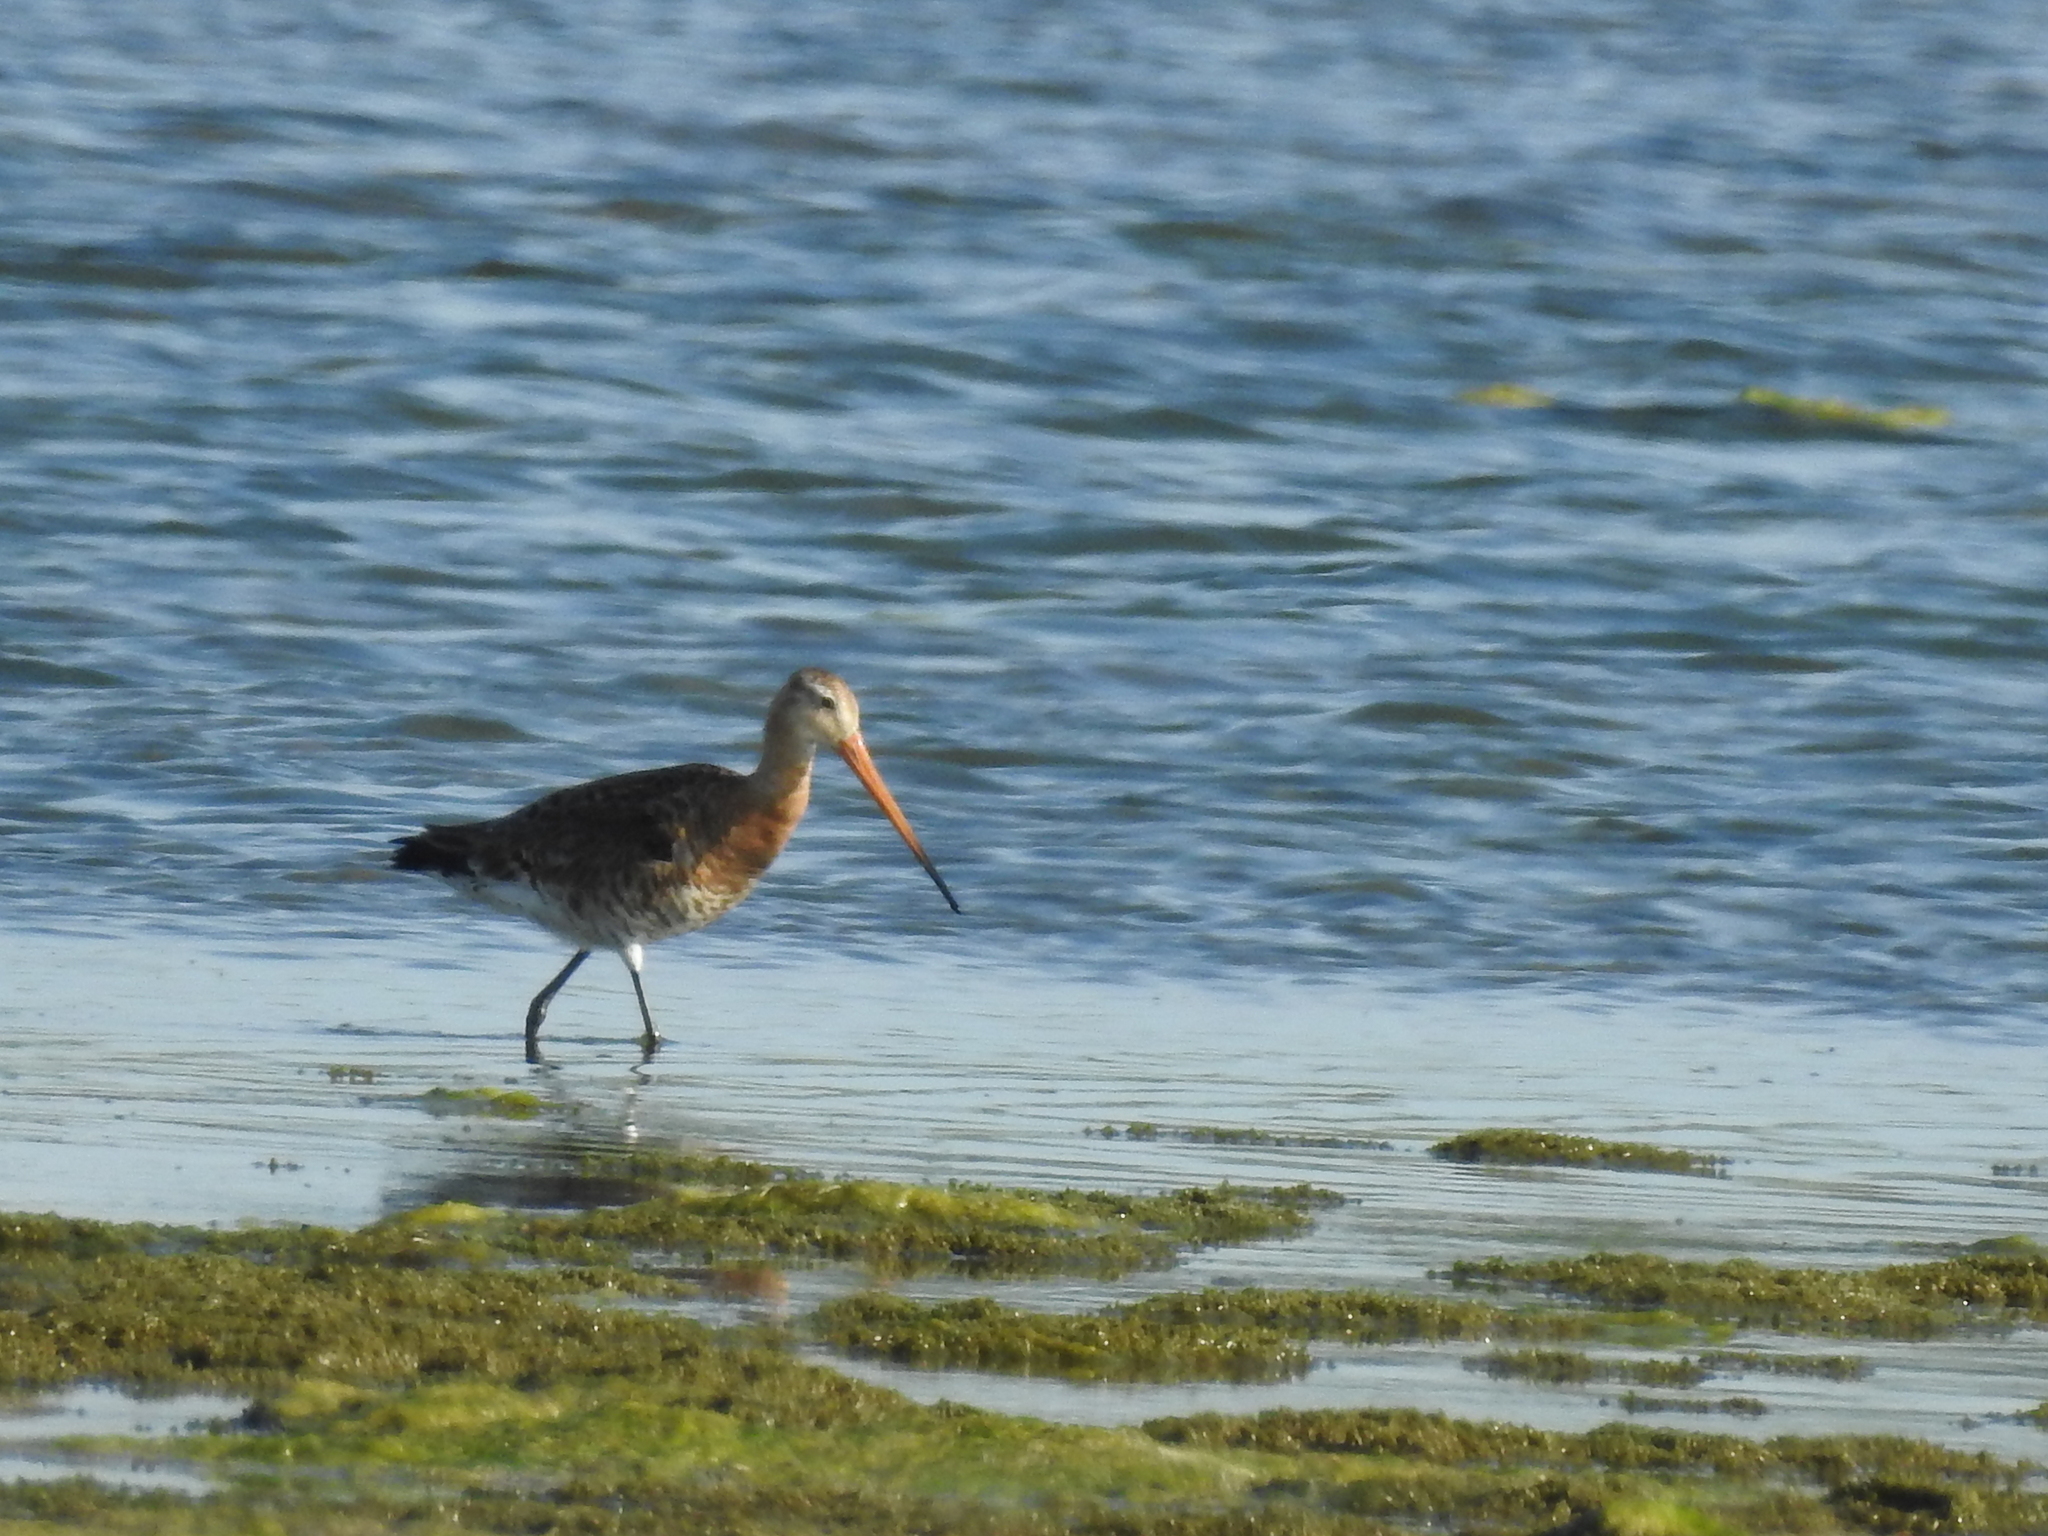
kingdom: Animalia
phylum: Chordata
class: Aves
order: Charadriiformes
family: Scolopacidae
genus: Limosa
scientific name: Limosa limosa
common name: Black-tailed godwit
